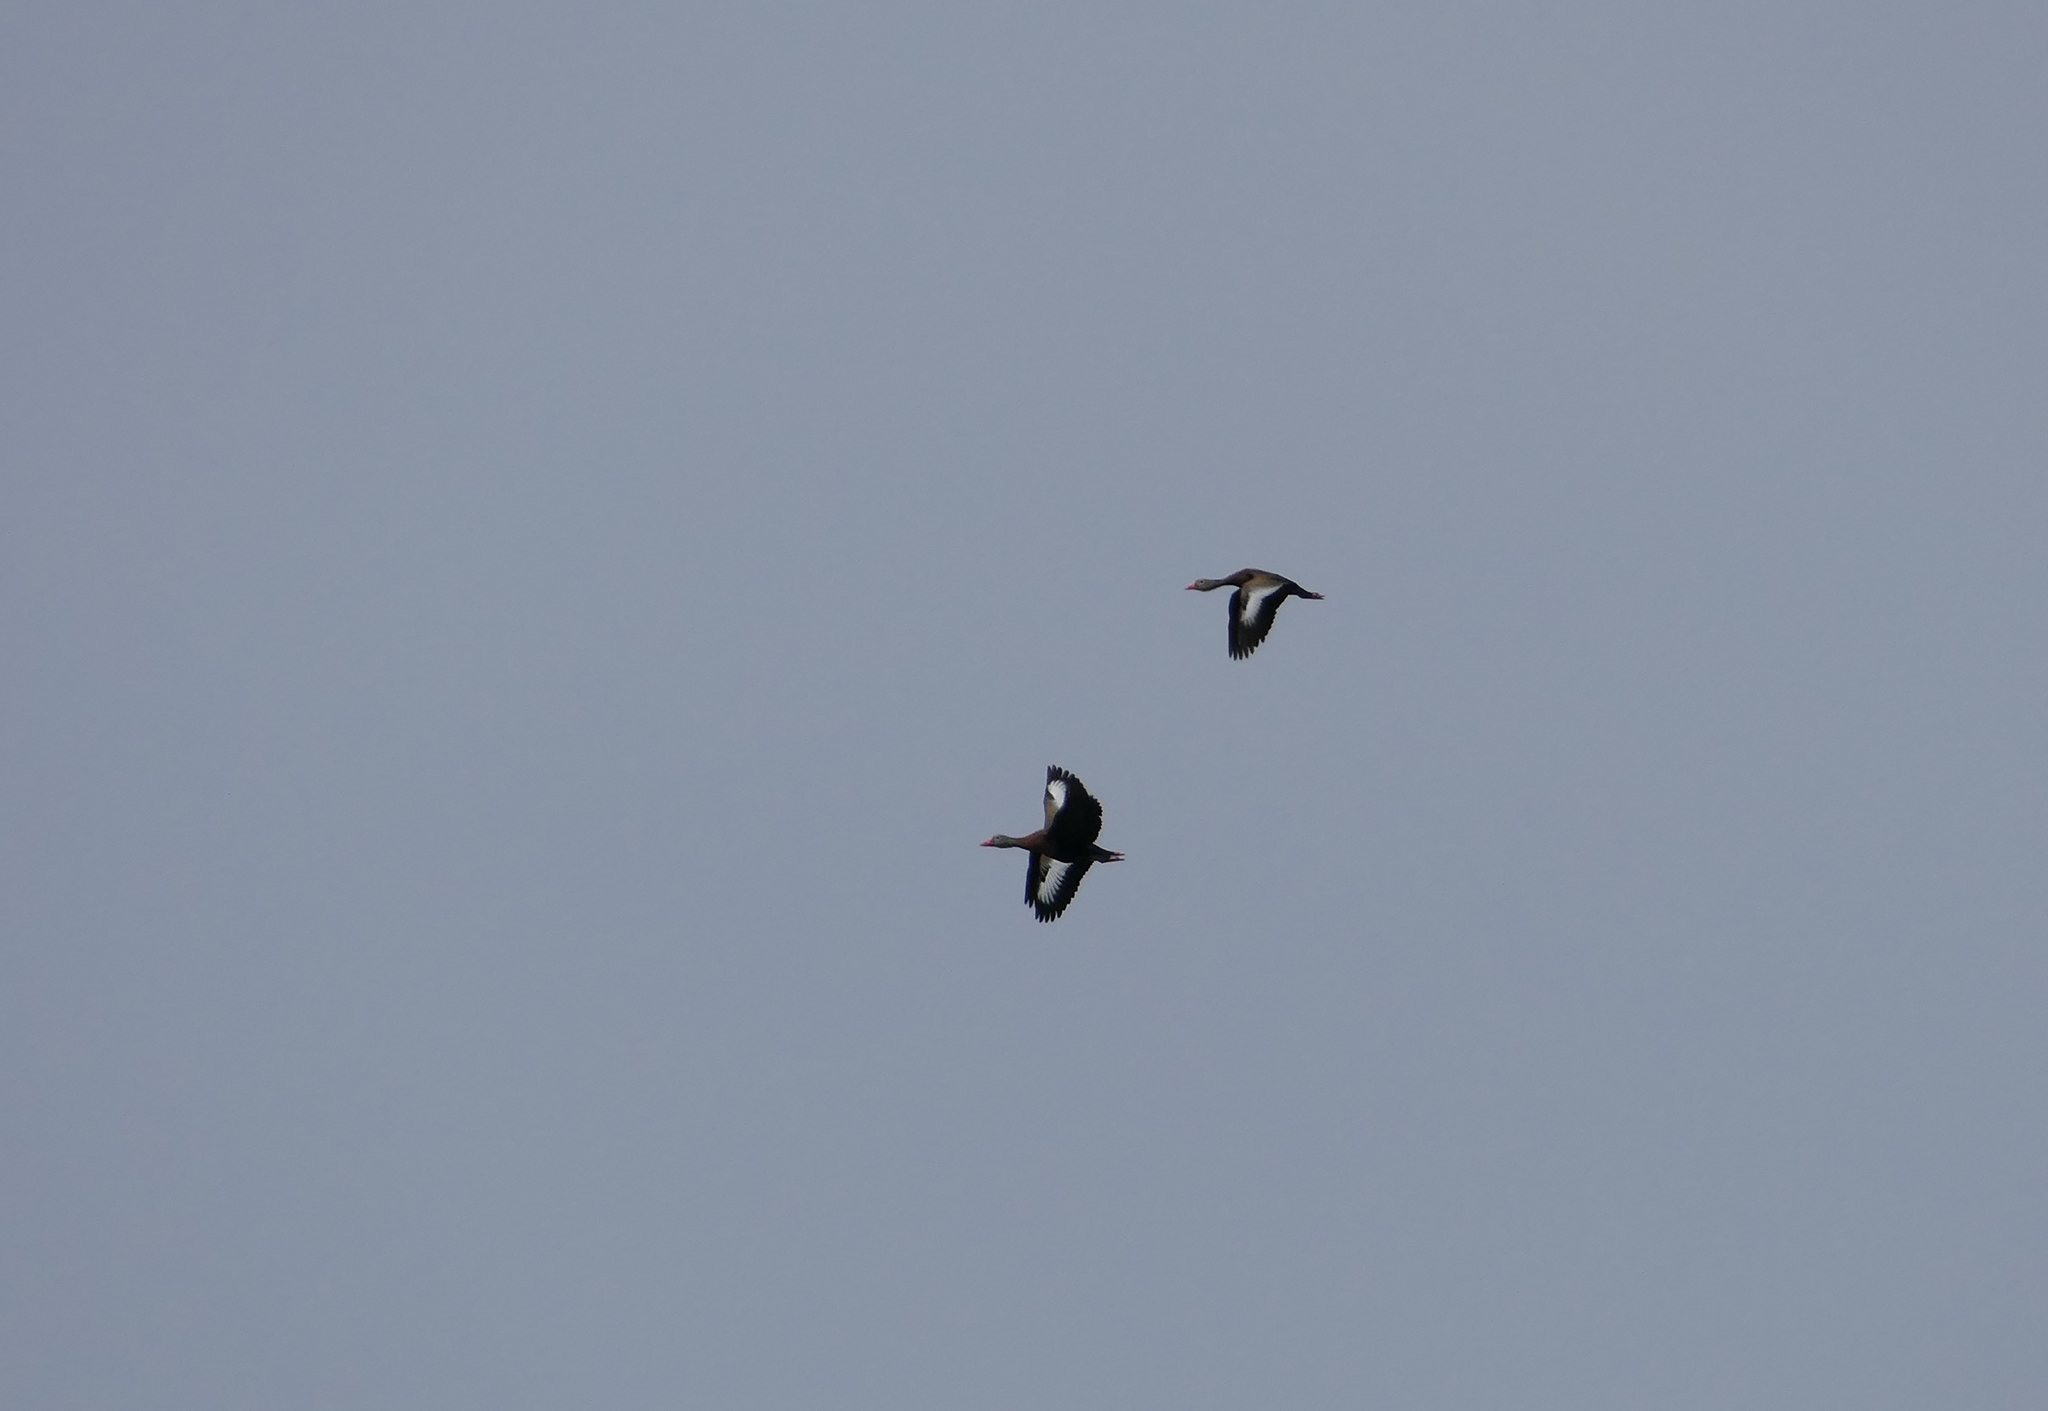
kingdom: Animalia
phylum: Chordata
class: Aves
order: Anseriformes
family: Anatidae
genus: Dendrocygna
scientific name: Dendrocygna autumnalis
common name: Black-bellied whistling duck
